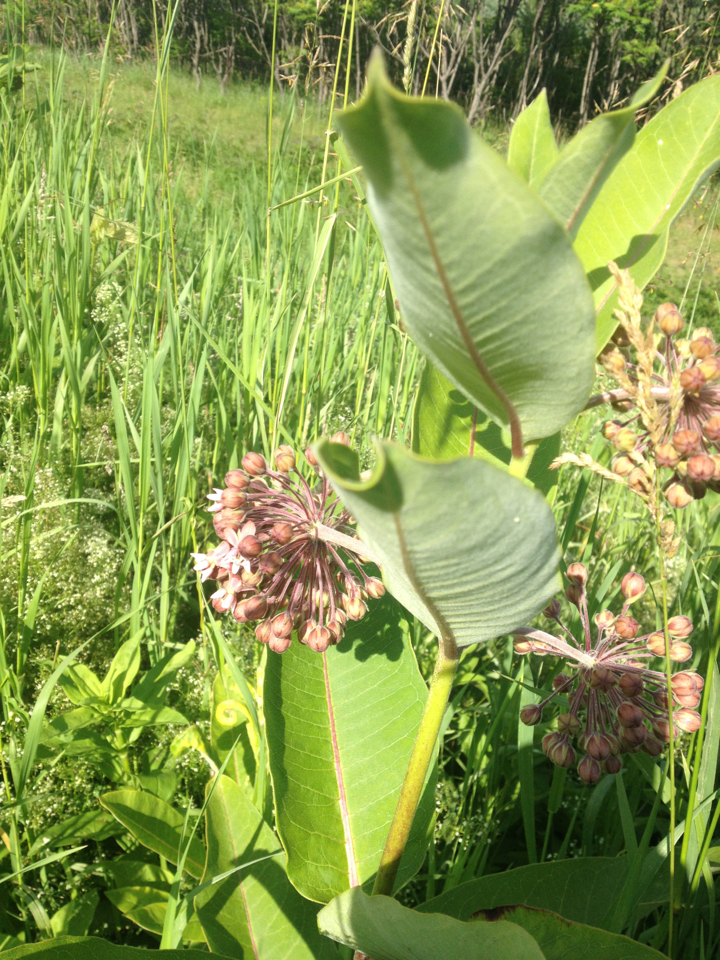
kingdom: Plantae
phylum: Tracheophyta
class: Magnoliopsida
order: Gentianales
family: Apocynaceae
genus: Asclepias
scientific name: Asclepias syriaca
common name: Common milkweed
